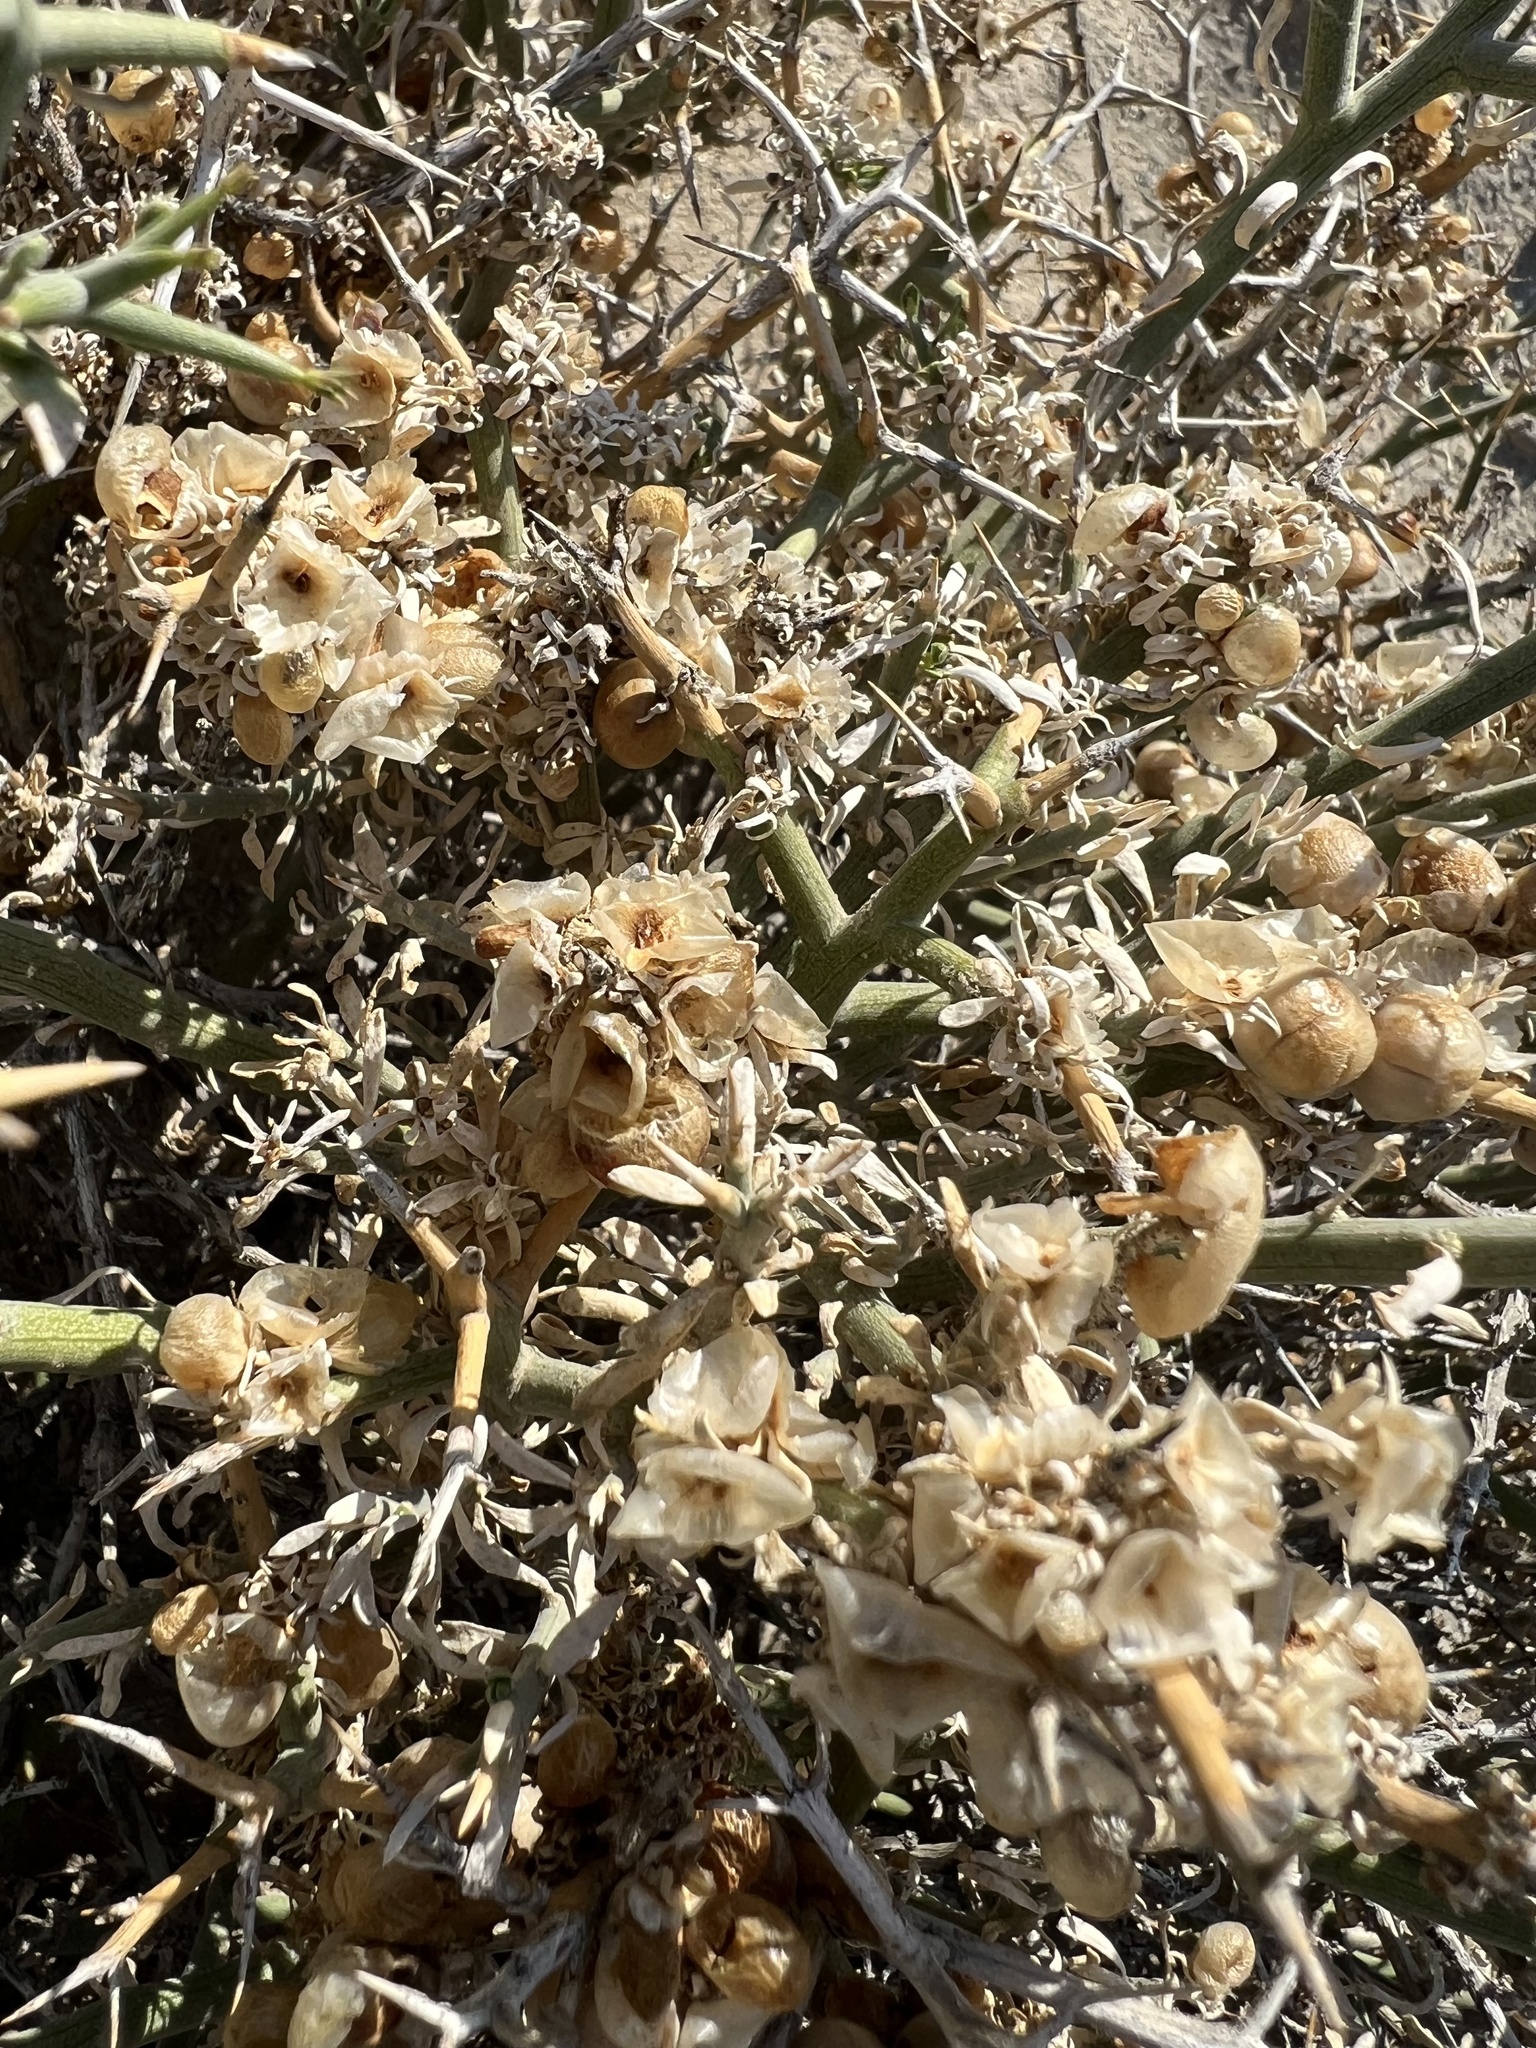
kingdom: Plantae
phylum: Tracheophyta
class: Magnoliopsida
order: Lamiales
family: Oleaceae
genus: Menodora
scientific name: Menodora spinescens
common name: Spiny menodora
